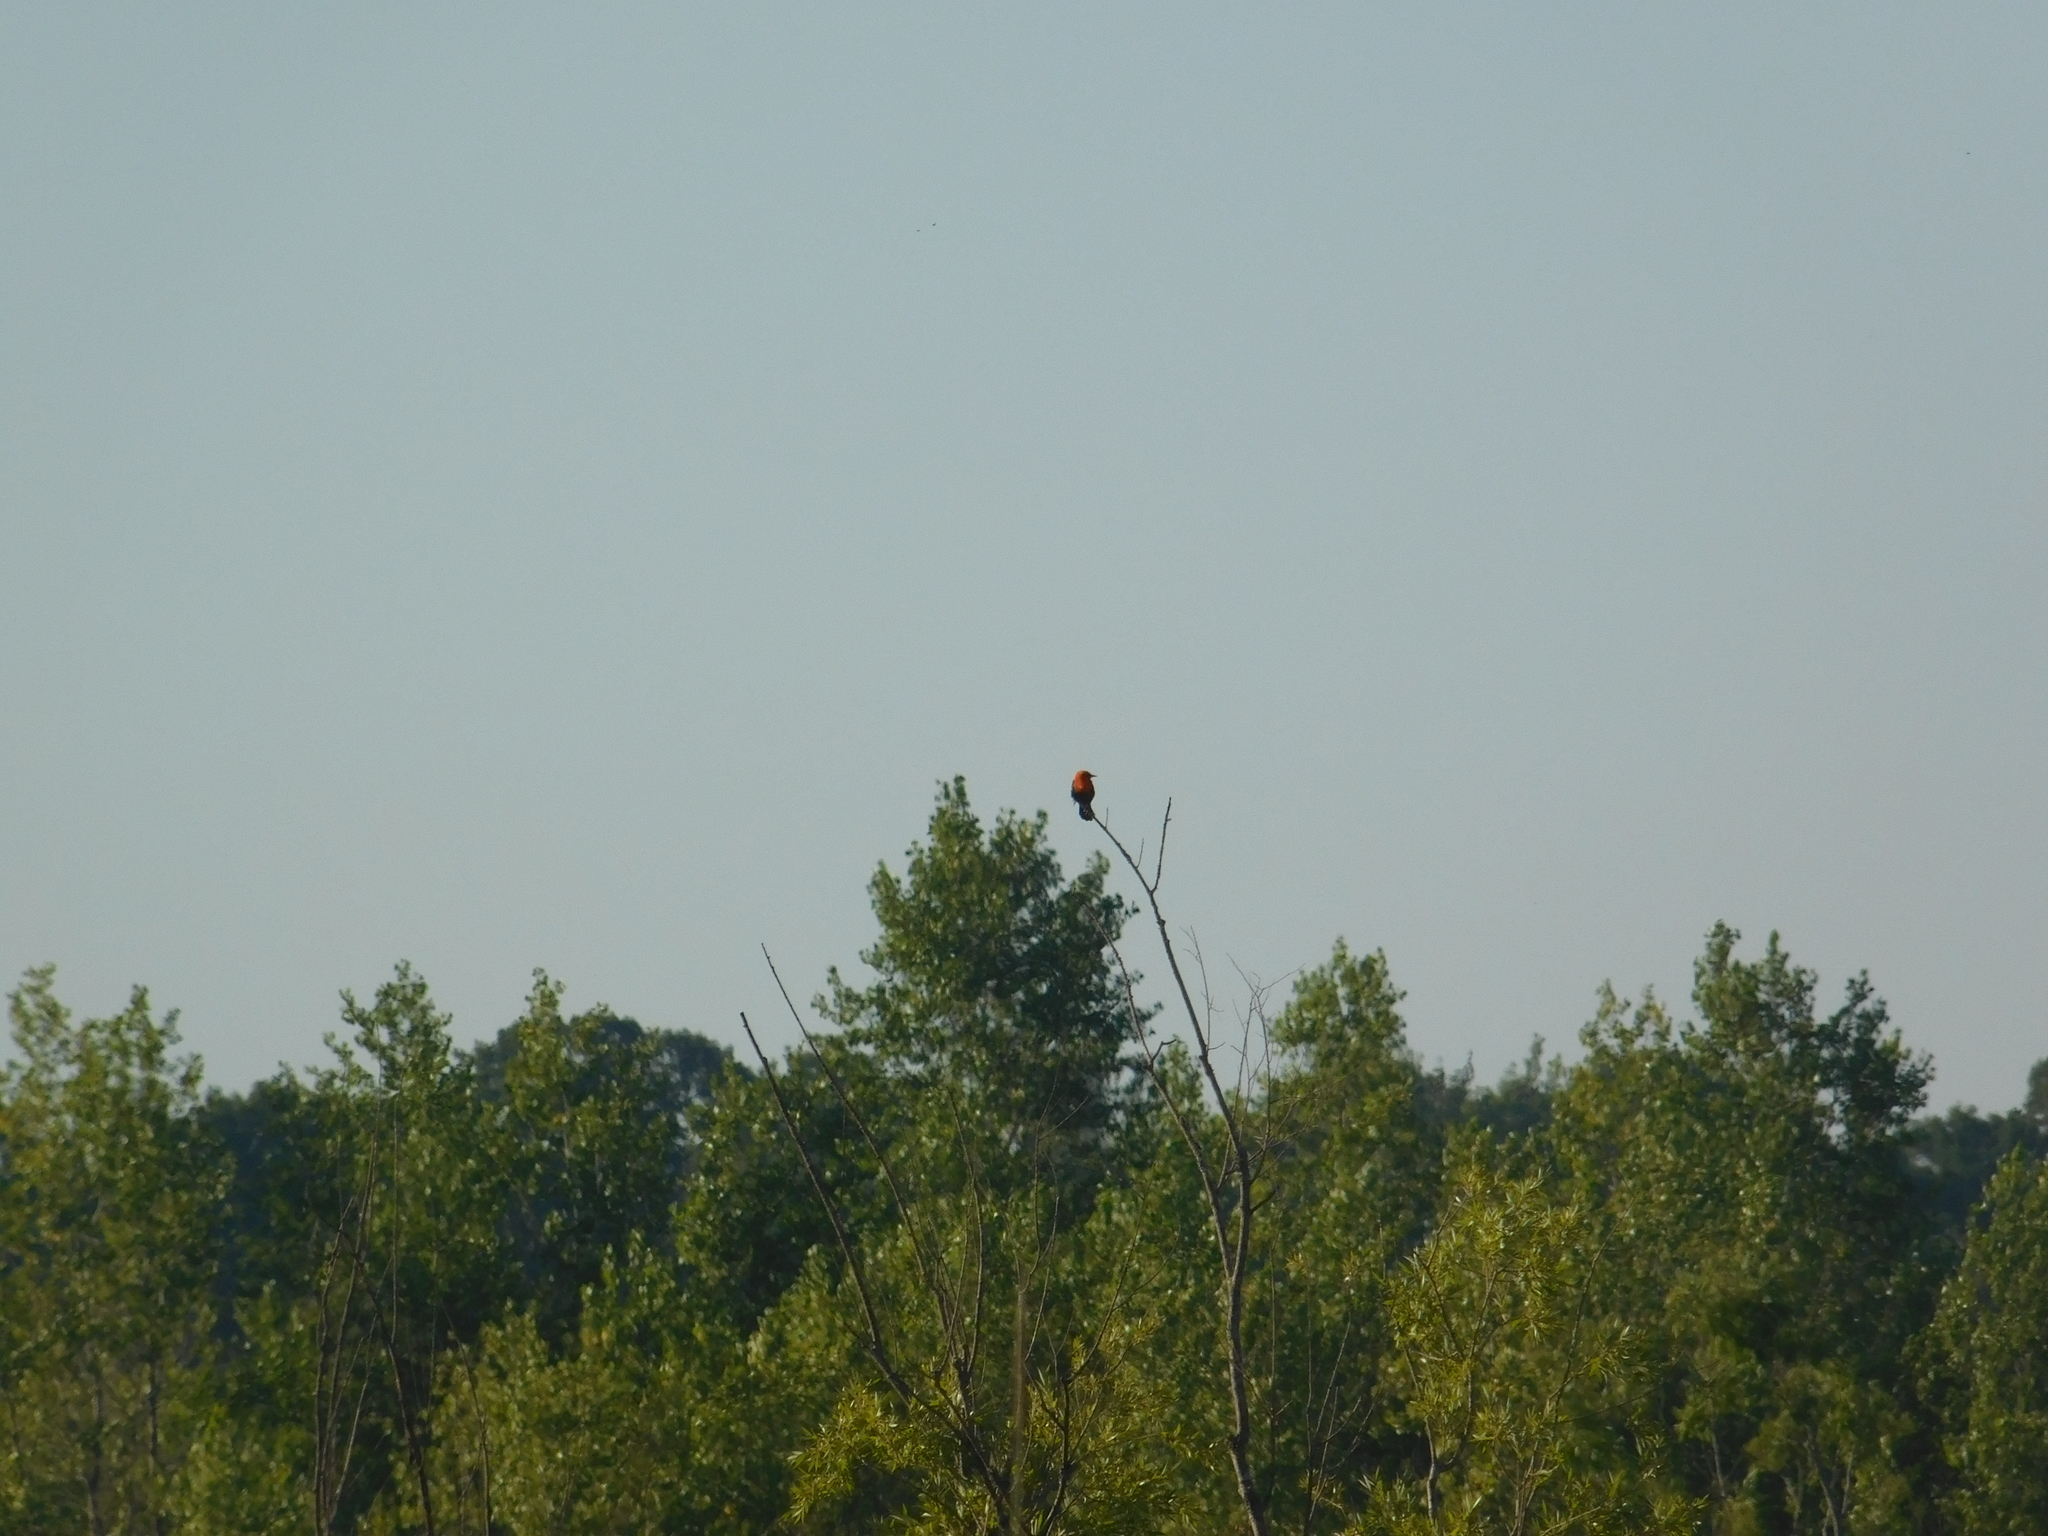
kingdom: Animalia
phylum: Chordata
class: Aves
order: Passeriformes
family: Icteridae
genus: Amblyramphus
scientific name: Amblyramphus holosericeus
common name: Scarlet-headed blackbird
